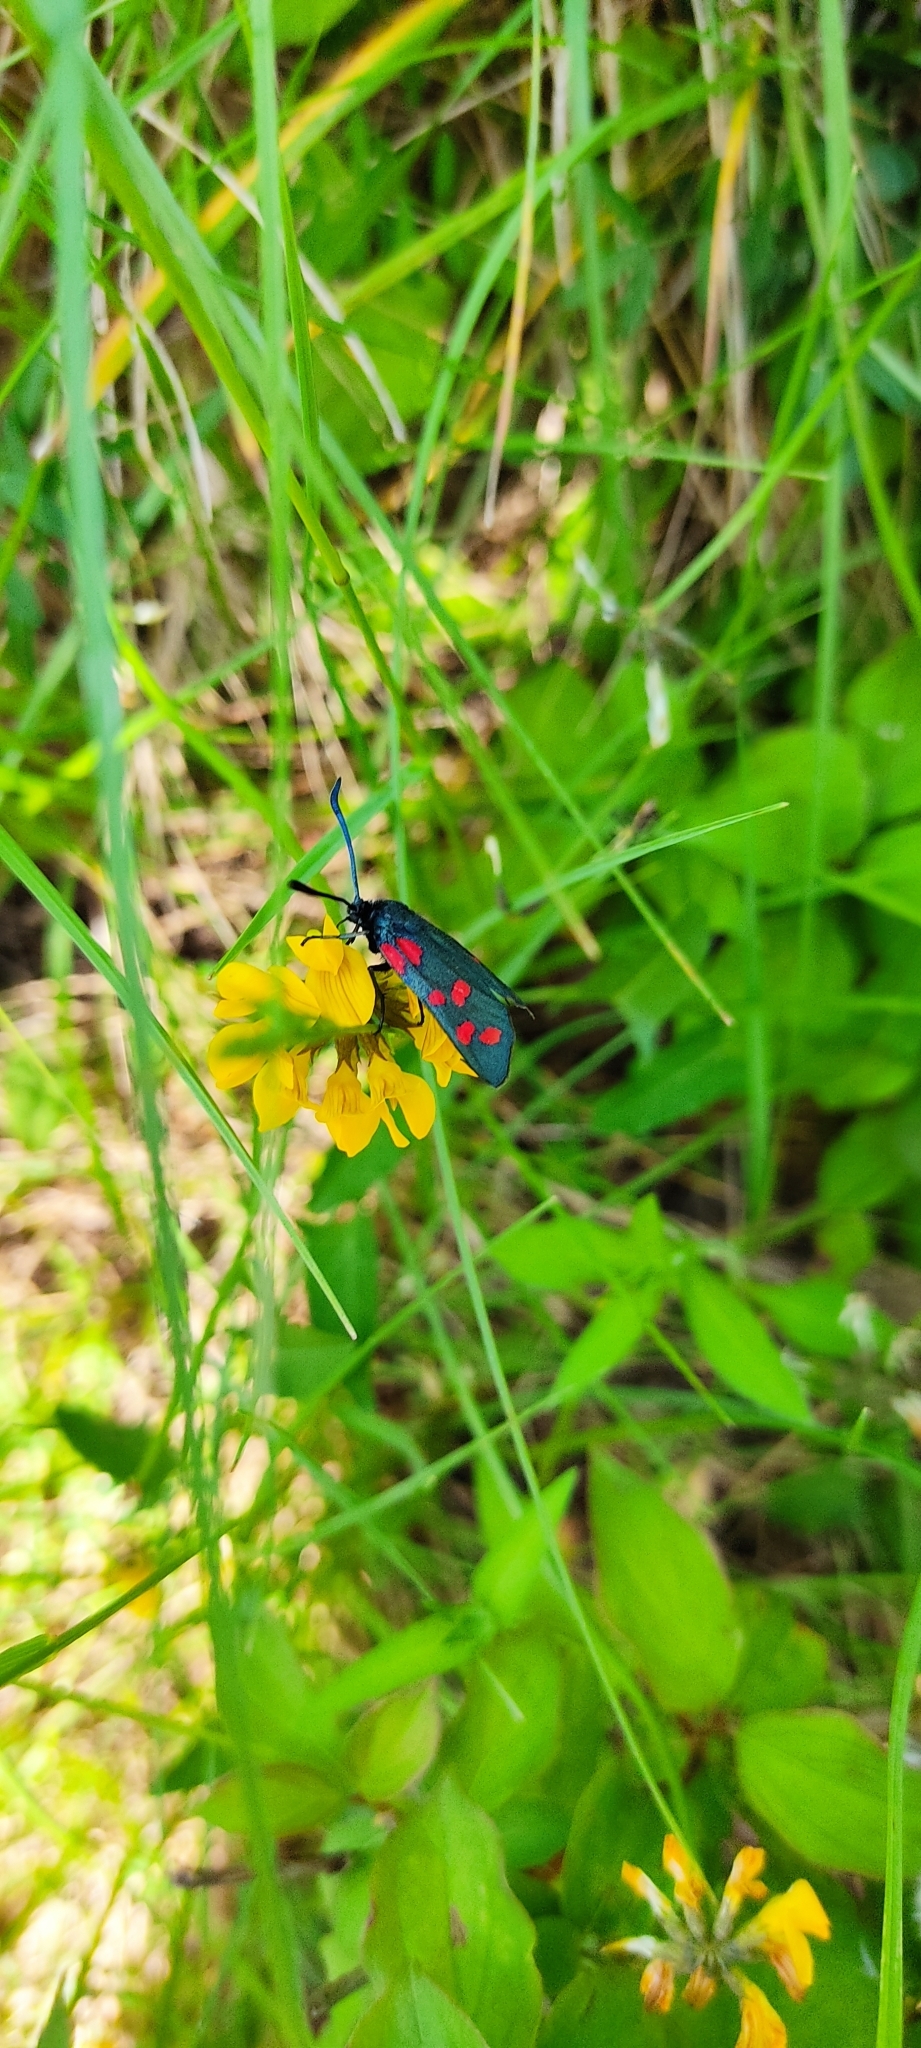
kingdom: Animalia
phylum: Arthropoda
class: Insecta
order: Lepidoptera
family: Zygaenidae
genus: Zygaena
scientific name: Zygaena filipendulae
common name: Six-spot burnet
